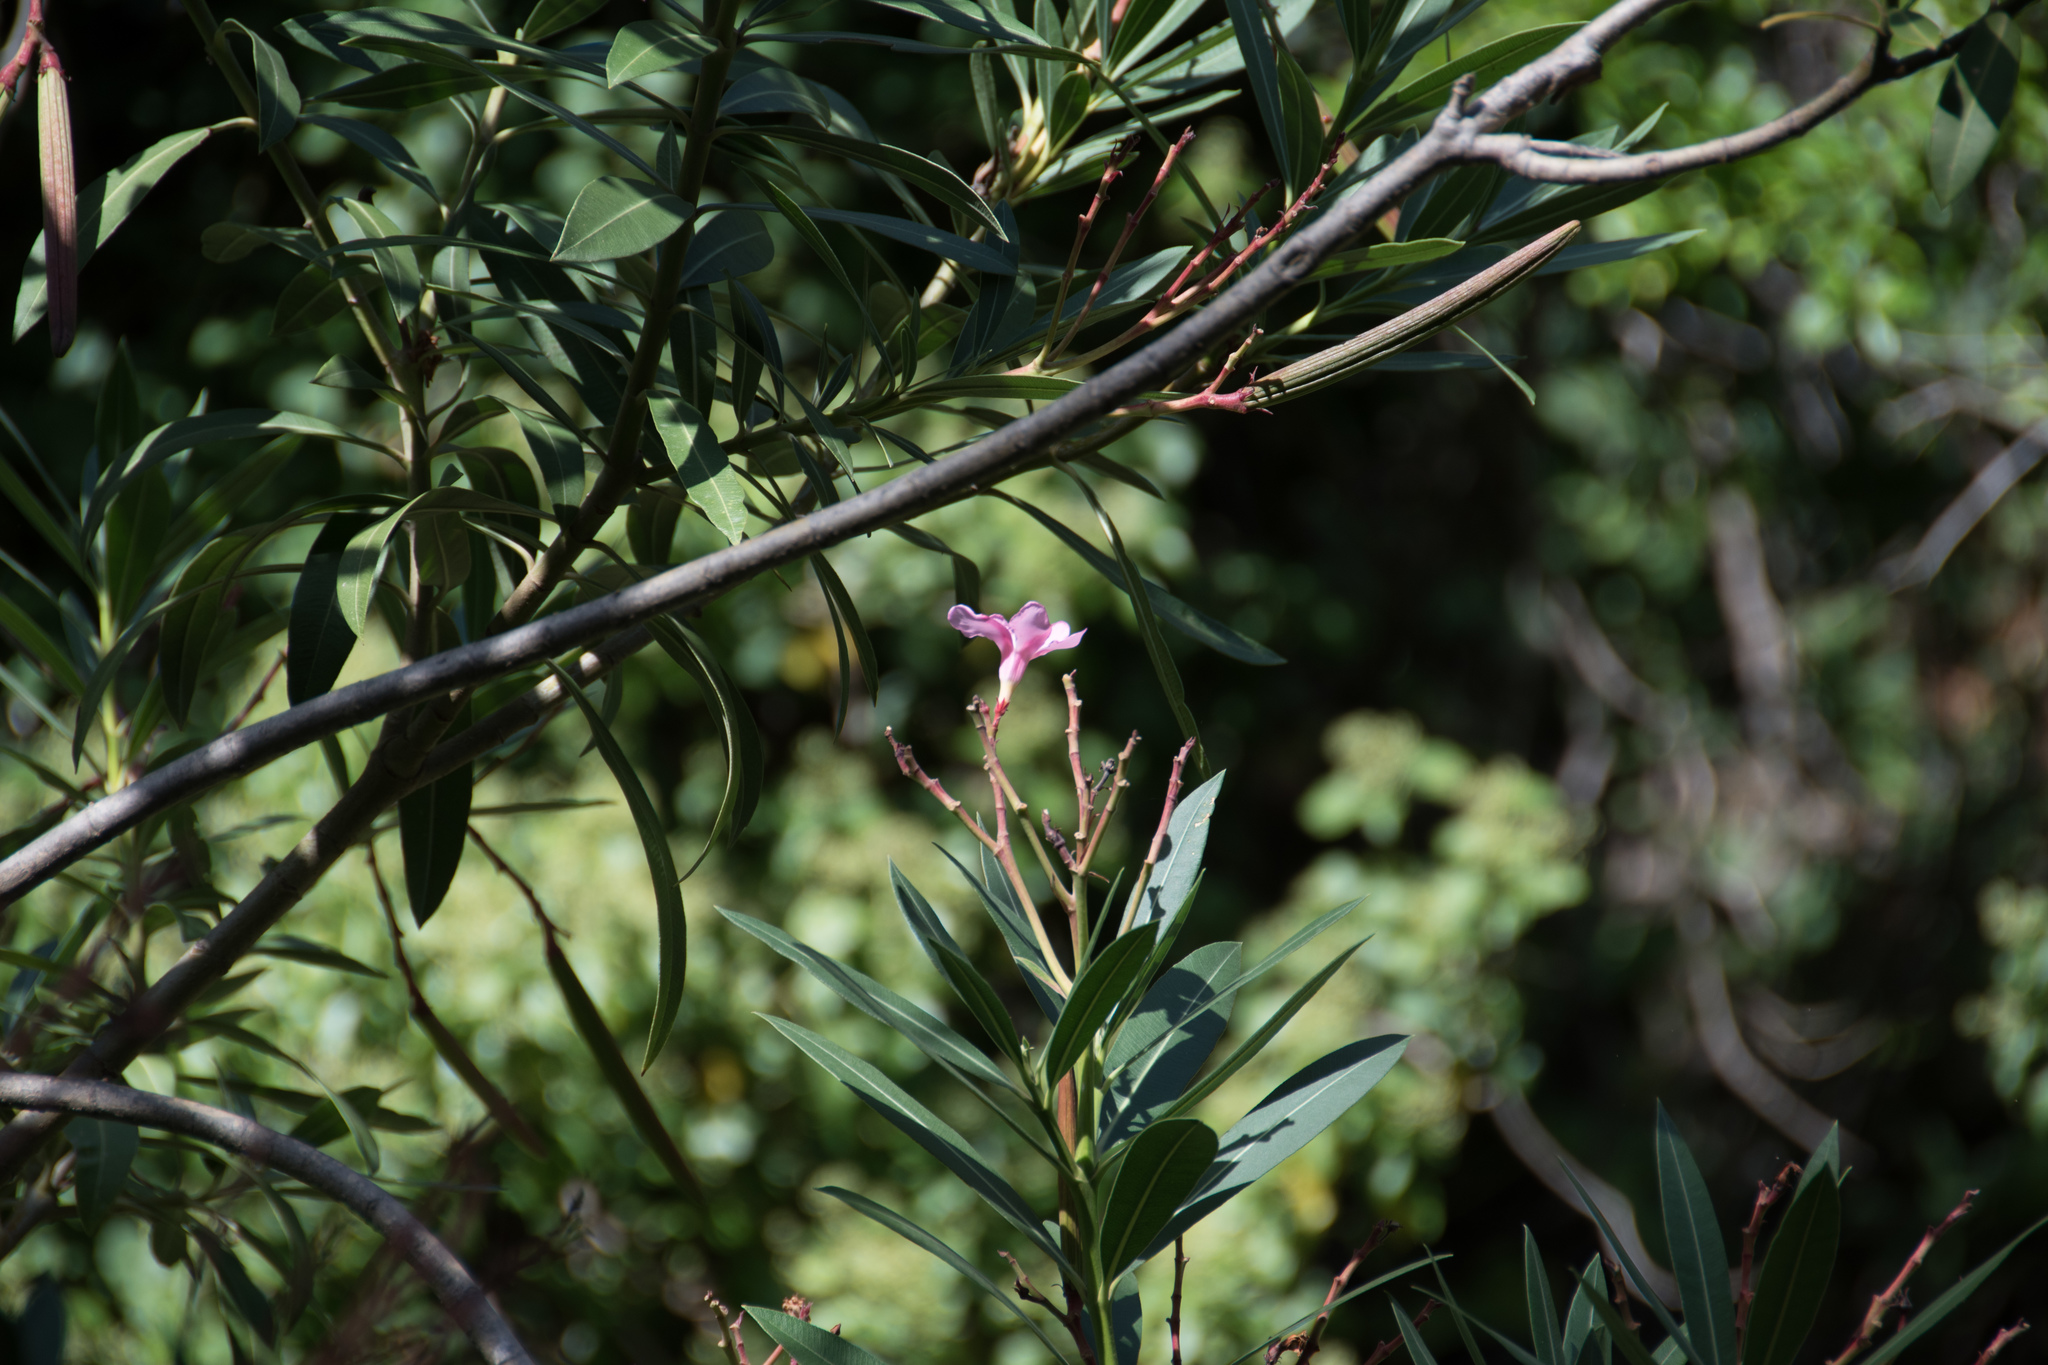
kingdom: Plantae
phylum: Tracheophyta
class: Magnoliopsida
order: Gentianales
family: Apocynaceae
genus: Nerium
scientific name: Nerium oleander
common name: Oleander
